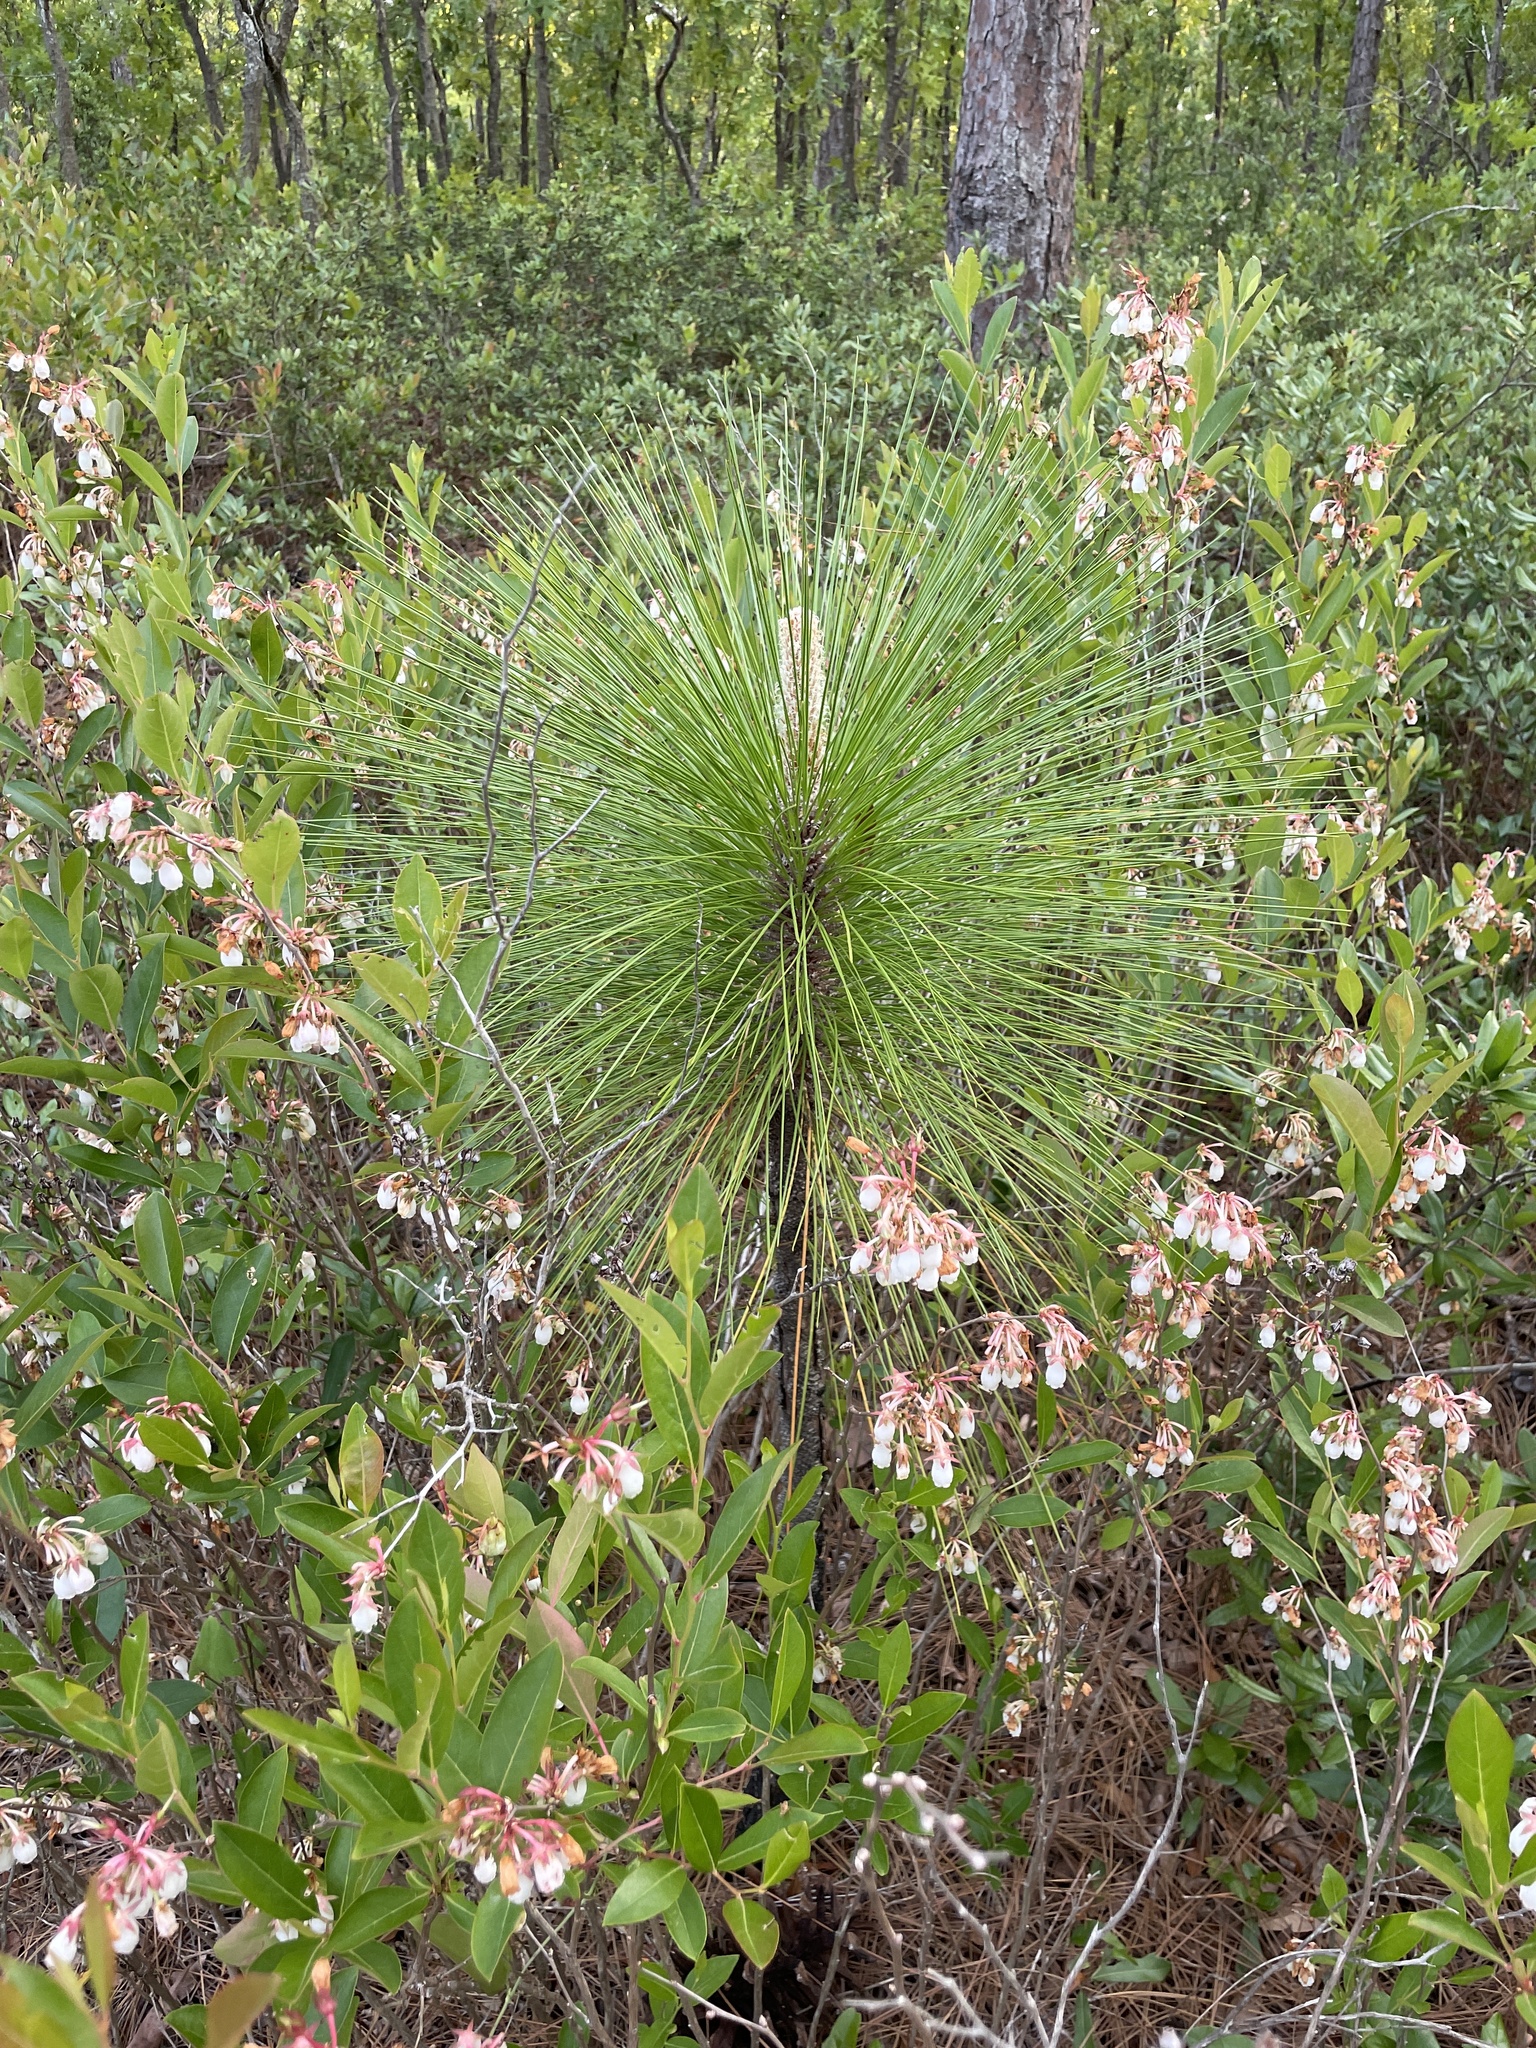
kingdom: Plantae
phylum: Tracheophyta
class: Pinopsida
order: Pinales
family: Pinaceae
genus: Pinus
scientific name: Pinus palustris
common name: Longleaf pine
